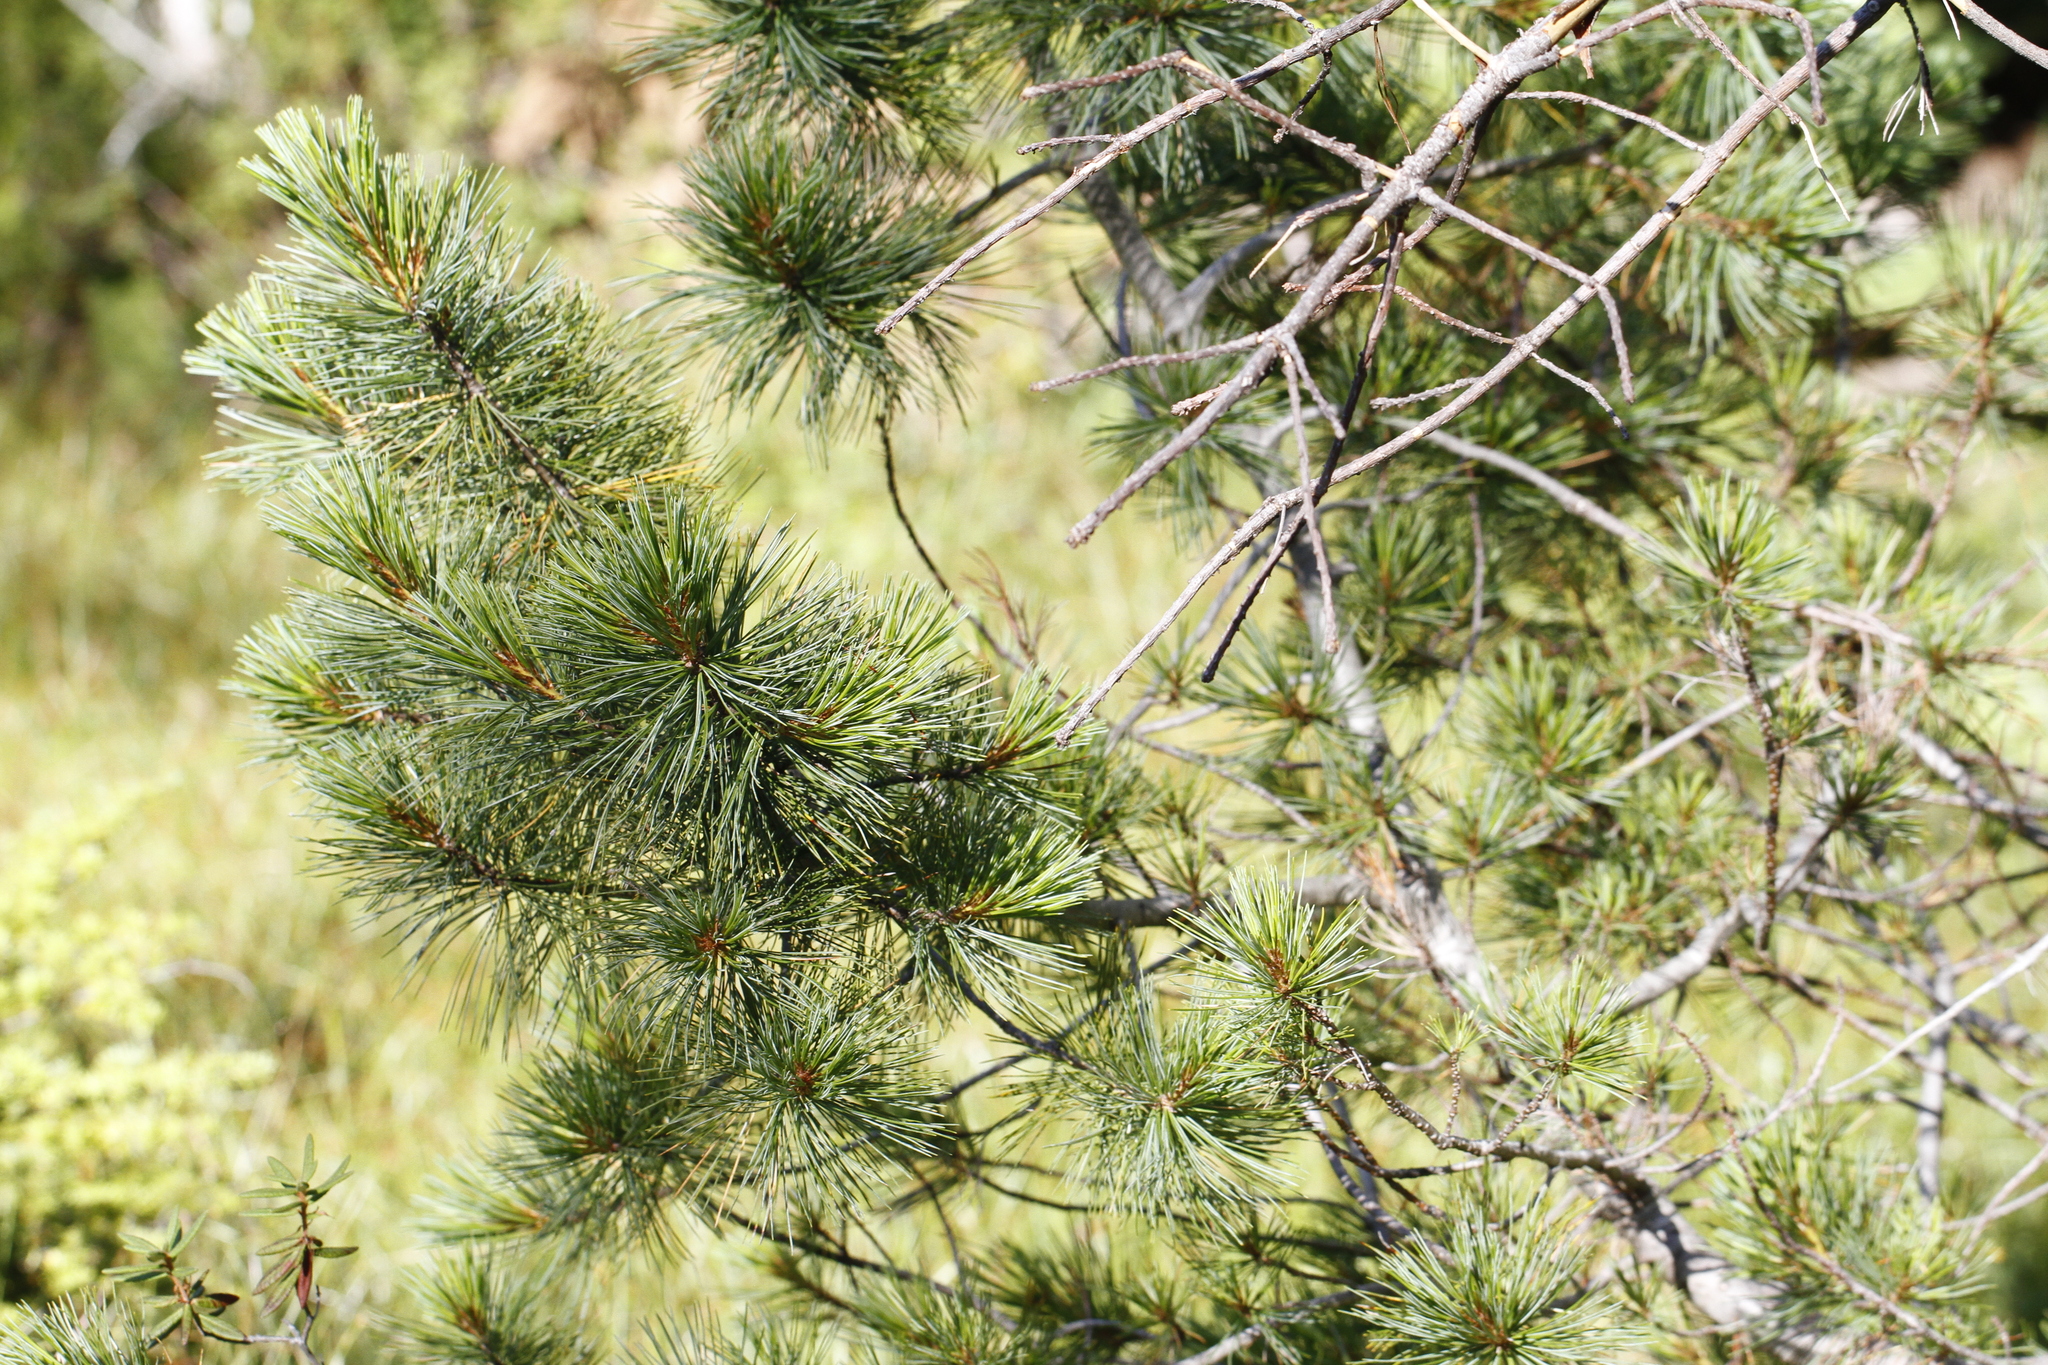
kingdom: Plantae
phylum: Tracheophyta
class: Pinopsida
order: Pinales
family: Pinaceae
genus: Pinus
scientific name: Pinus monticola
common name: Western white pine
